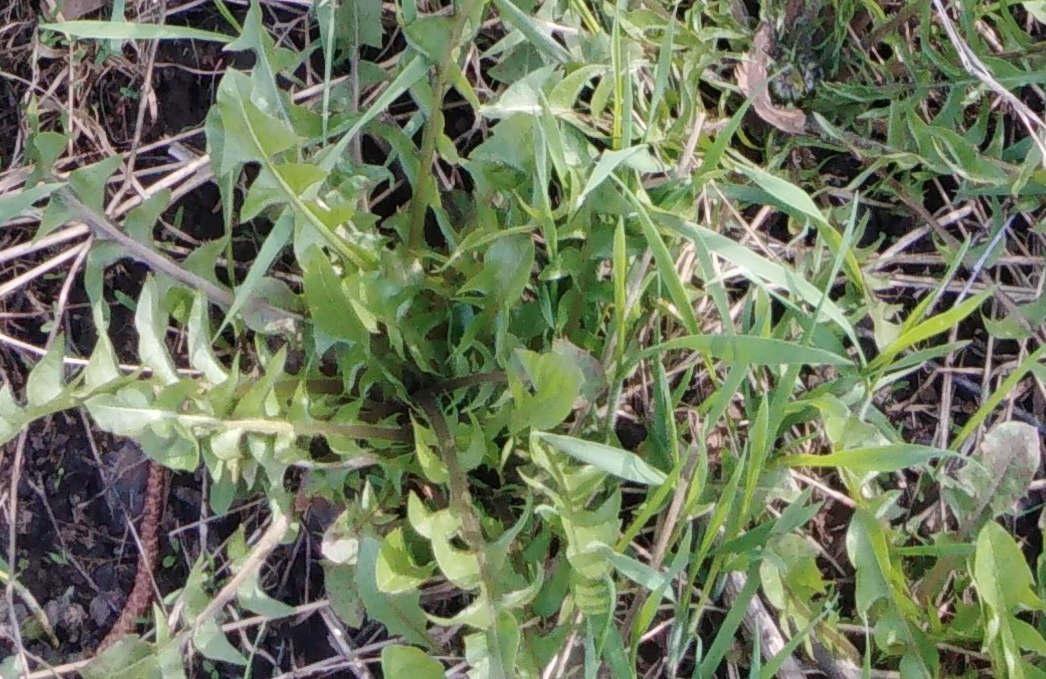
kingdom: Plantae
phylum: Tracheophyta
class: Magnoliopsida
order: Asterales
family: Asteraceae
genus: Taraxacum
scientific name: Taraxacum officinale
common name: Common dandelion
